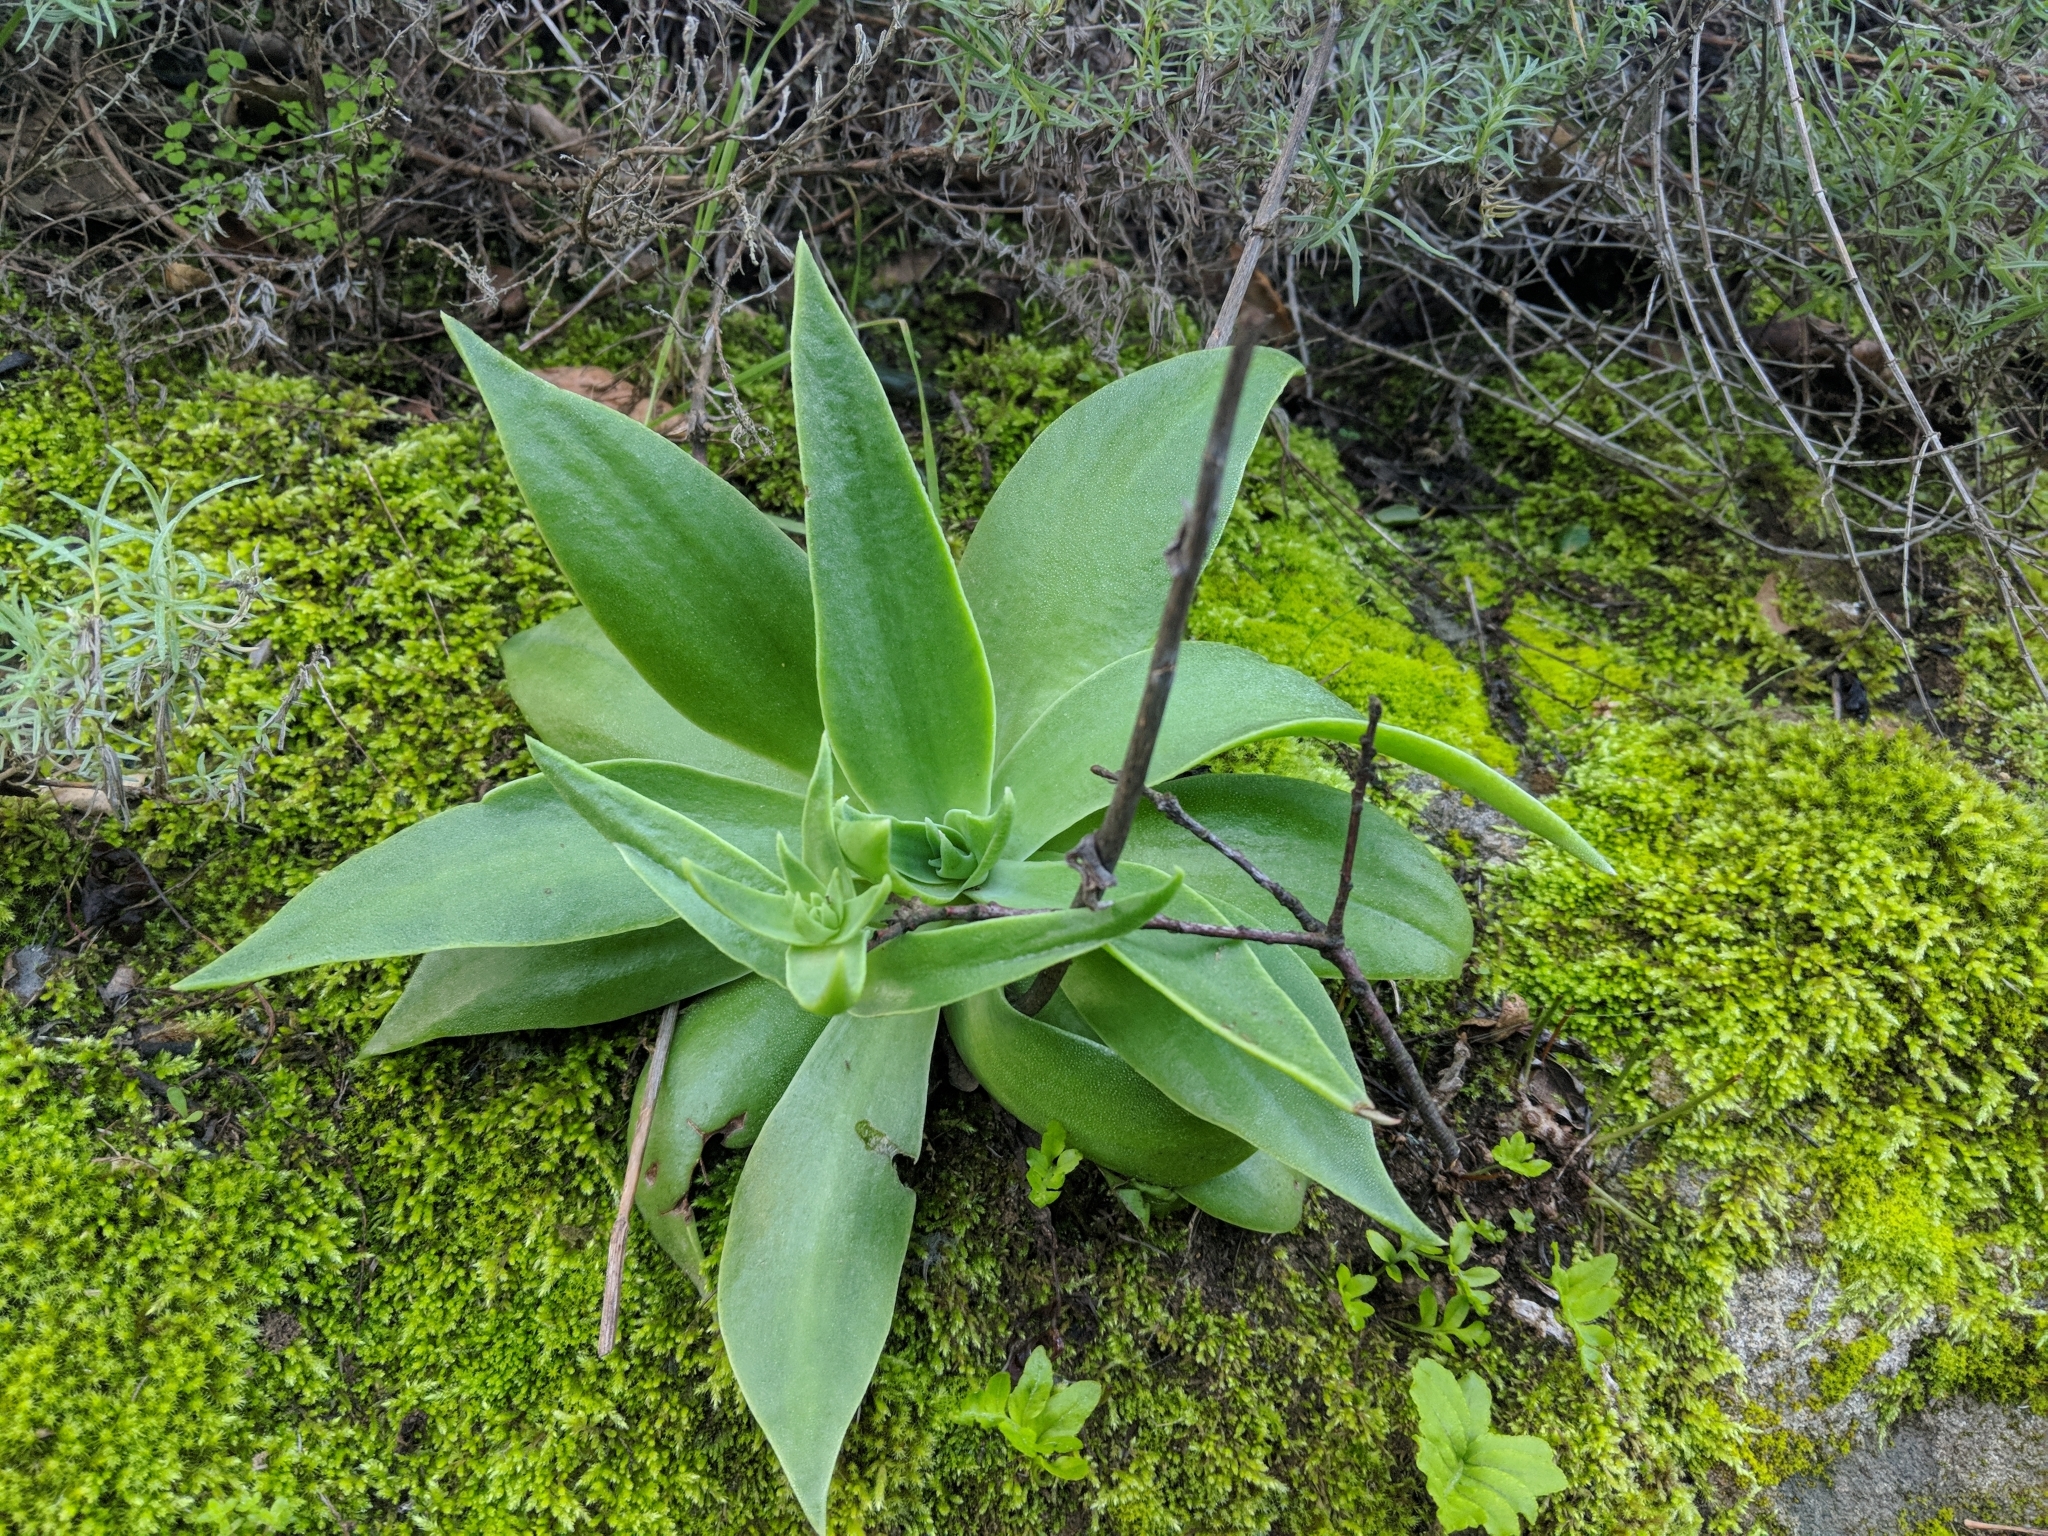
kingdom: Plantae
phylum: Tracheophyta
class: Magnoliopsida
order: Saxifragales
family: Crassulaceae
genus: Dudleya
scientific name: Dudleya lanceolata
